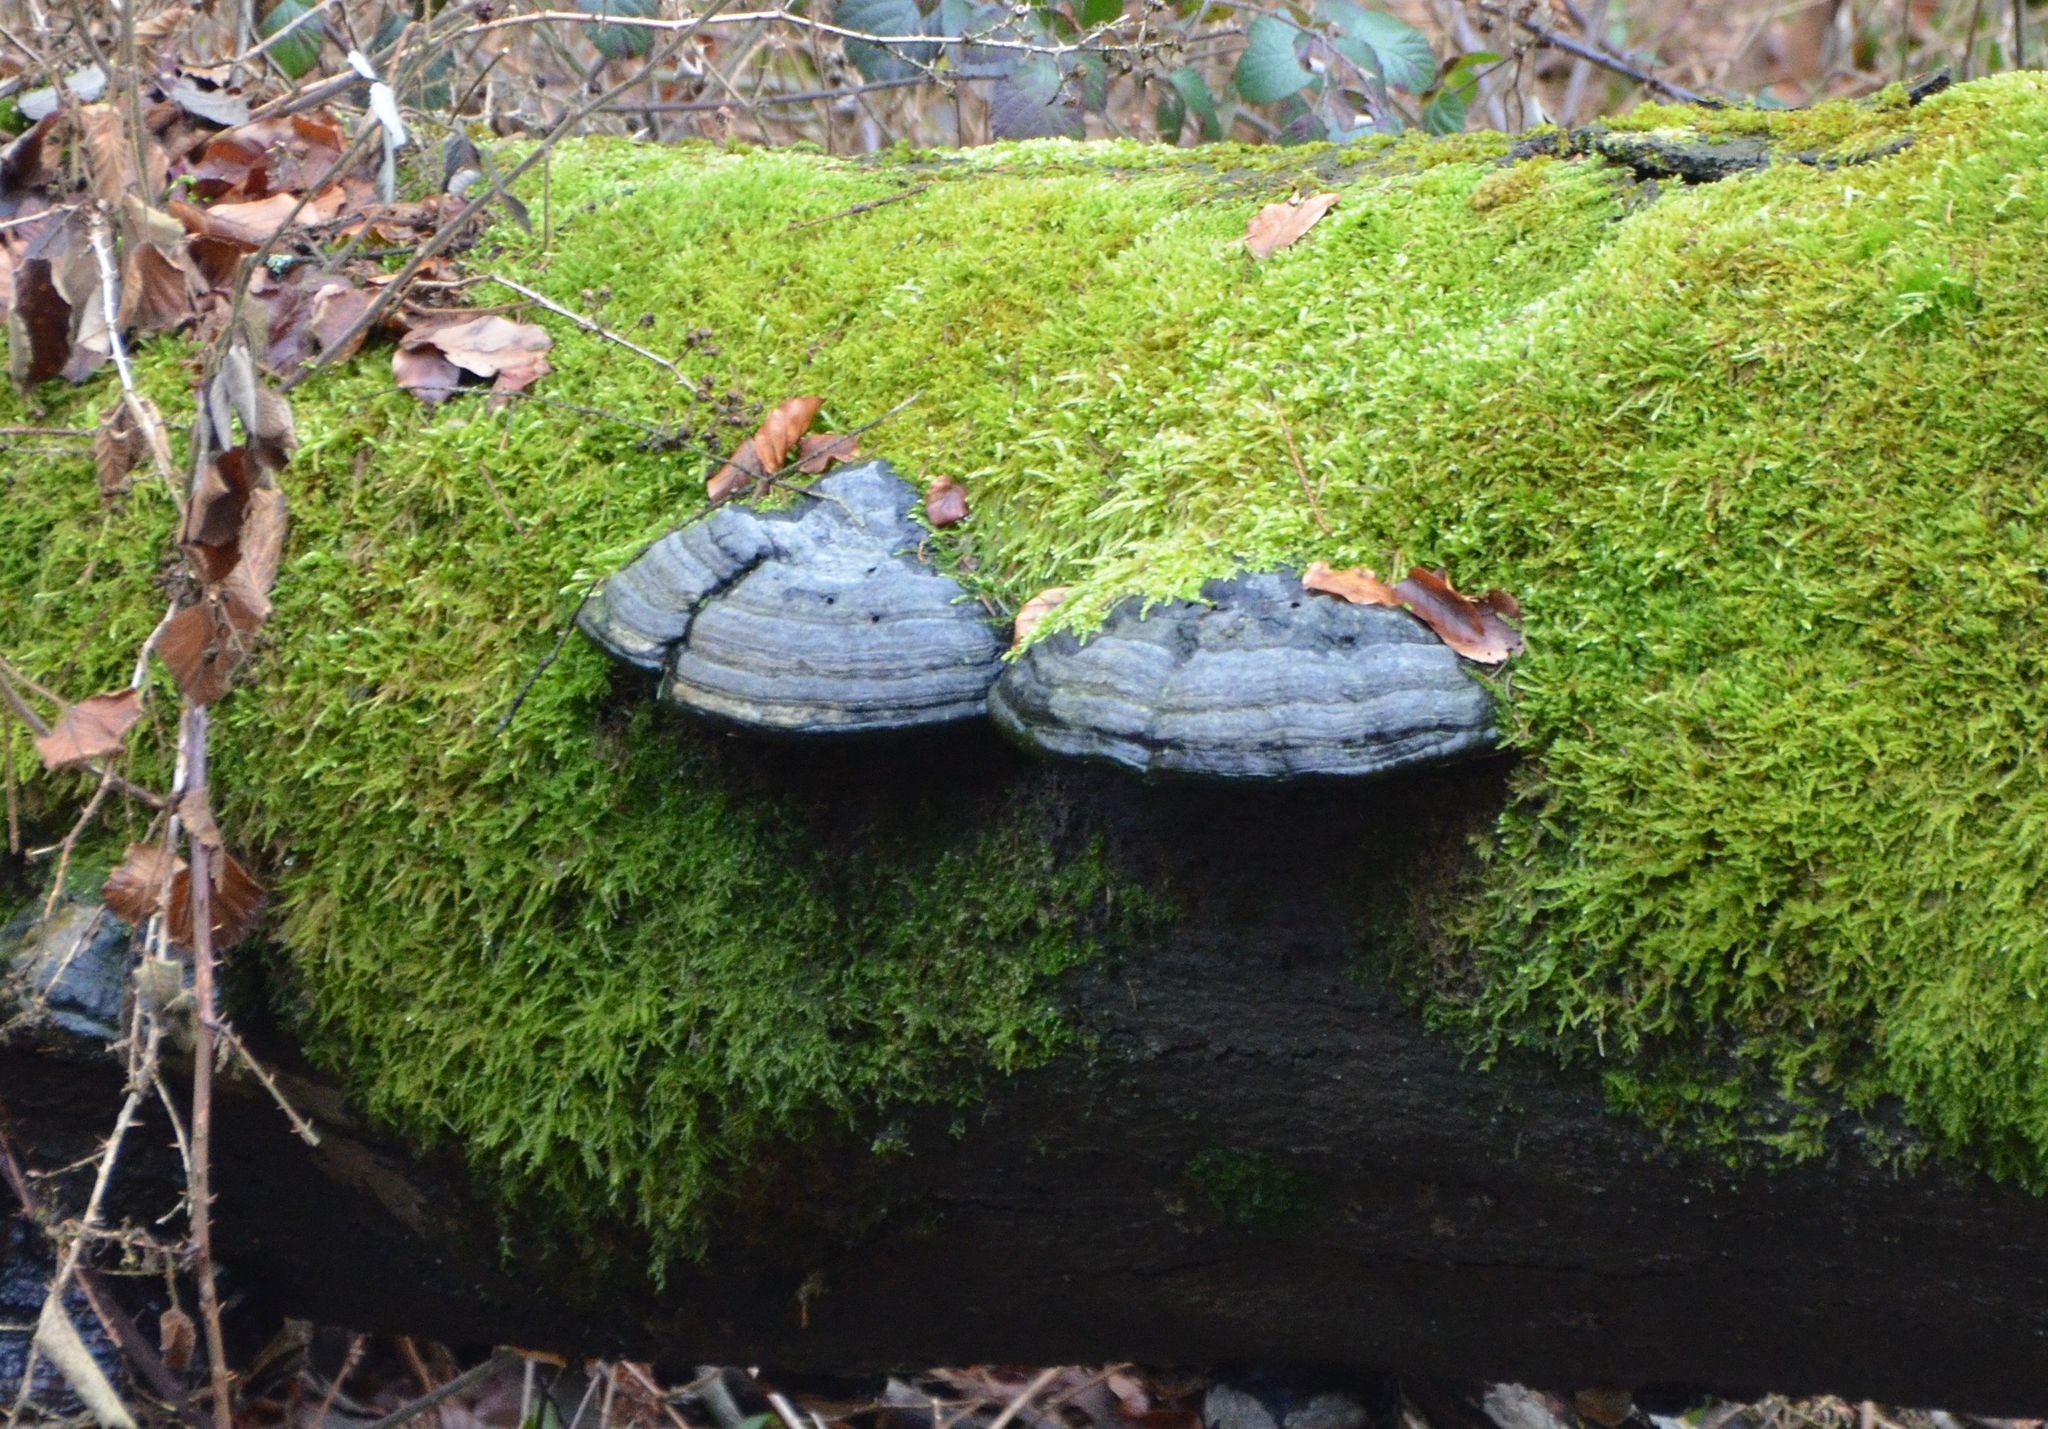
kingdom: Fungi
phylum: Basidiomycota
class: Agaricomycetes
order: Polyporales
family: Polyporaceae
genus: Fomes
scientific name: Fomes fomentarius
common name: Hoof fungus
